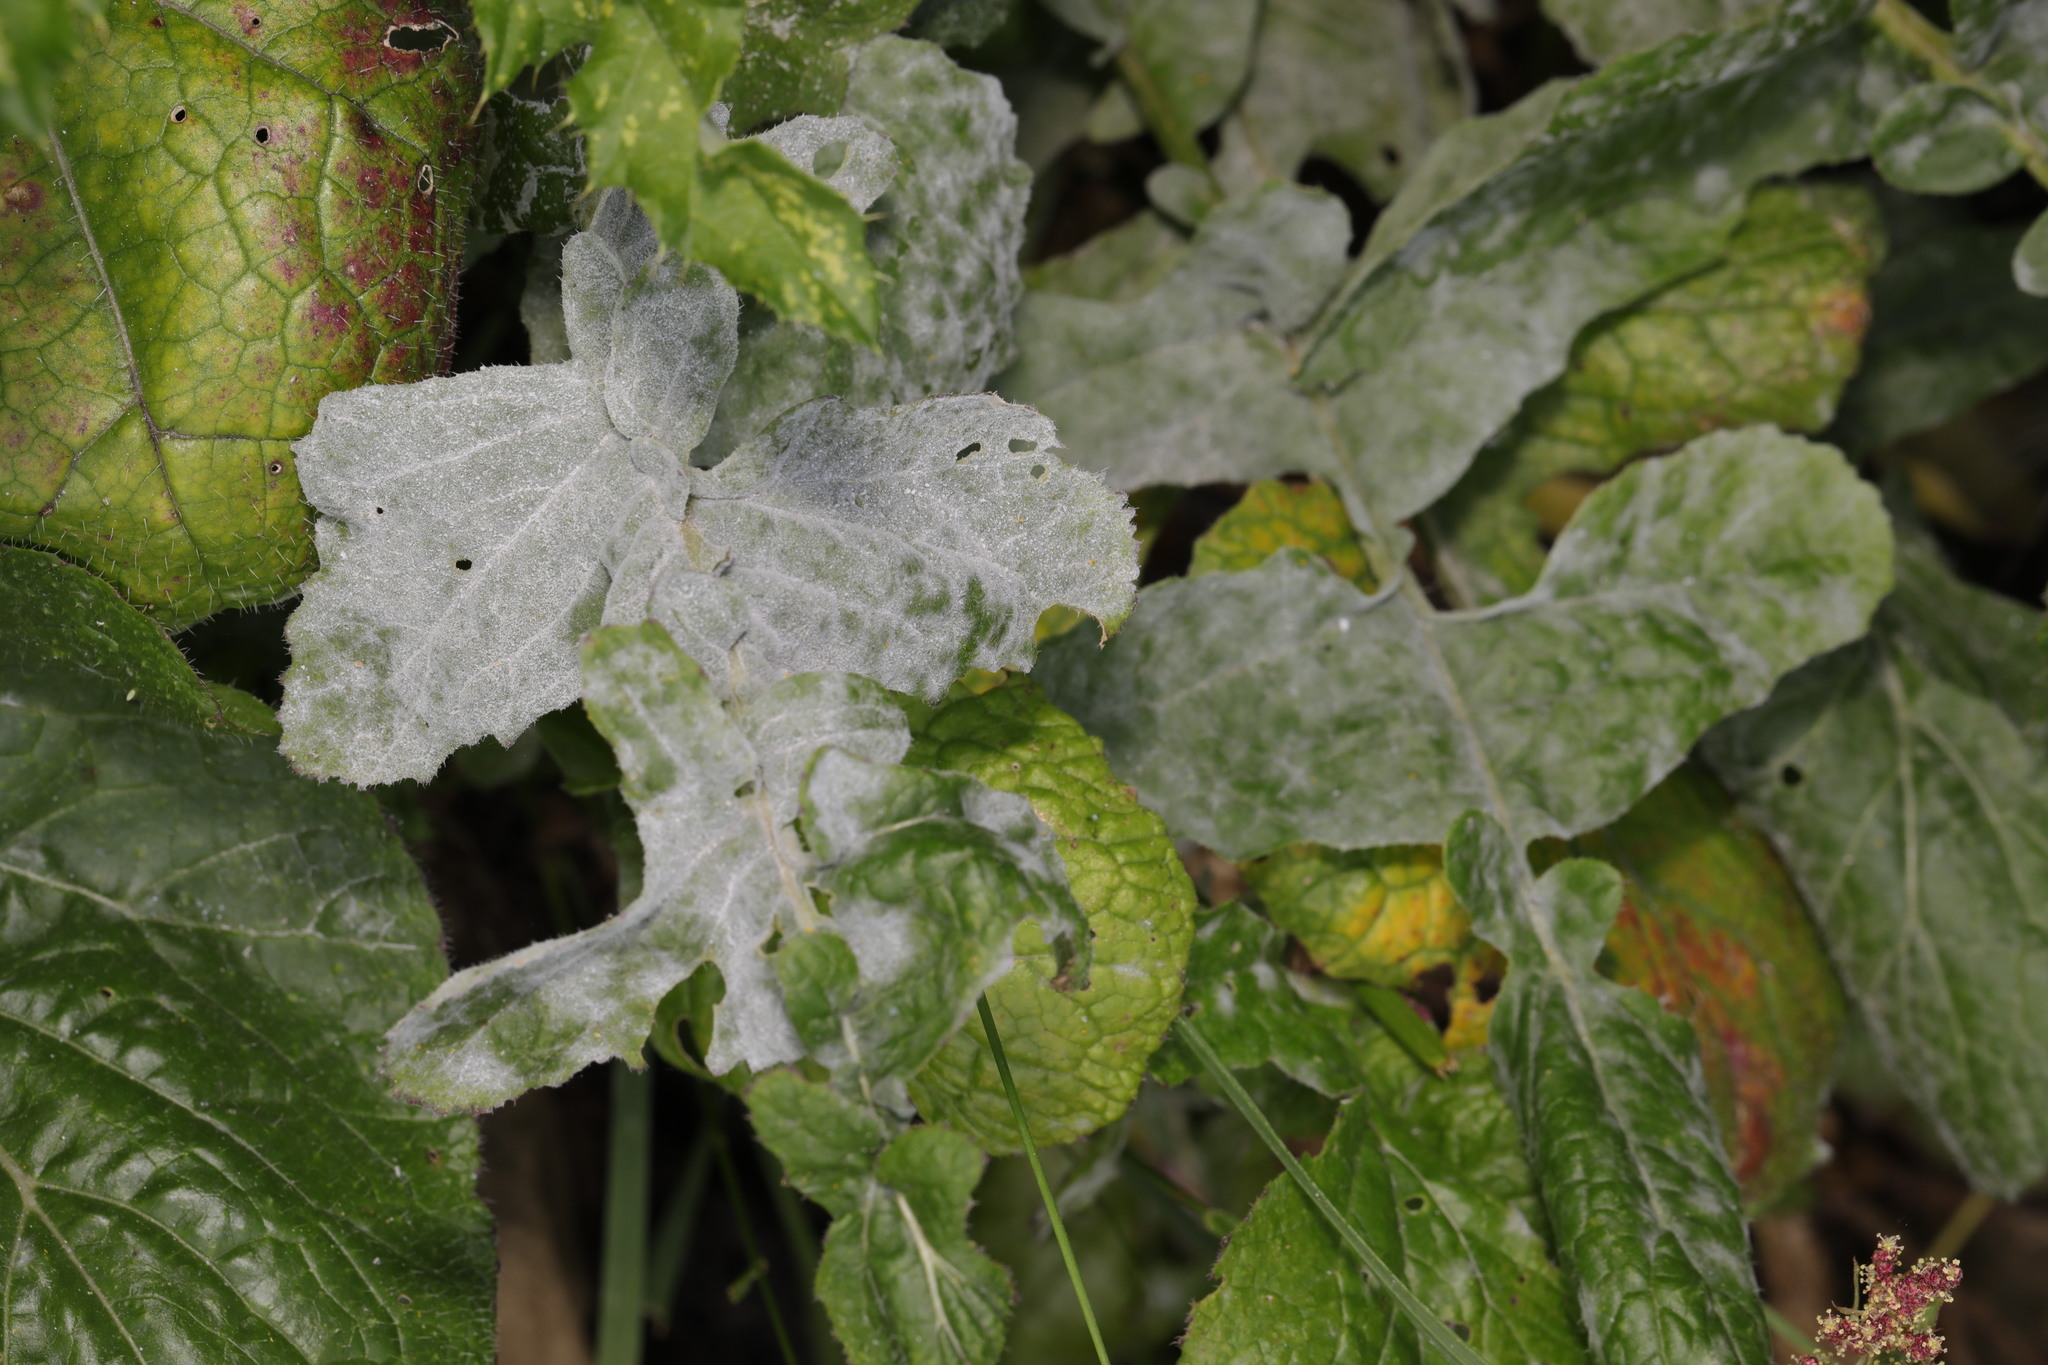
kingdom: Fungi
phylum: Ascomycota
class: Leotiomycetes
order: Helotiales
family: Erysiphaceae
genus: Erysiphe
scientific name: Erysiphe cruciferarum
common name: Brassica powdery mildew
